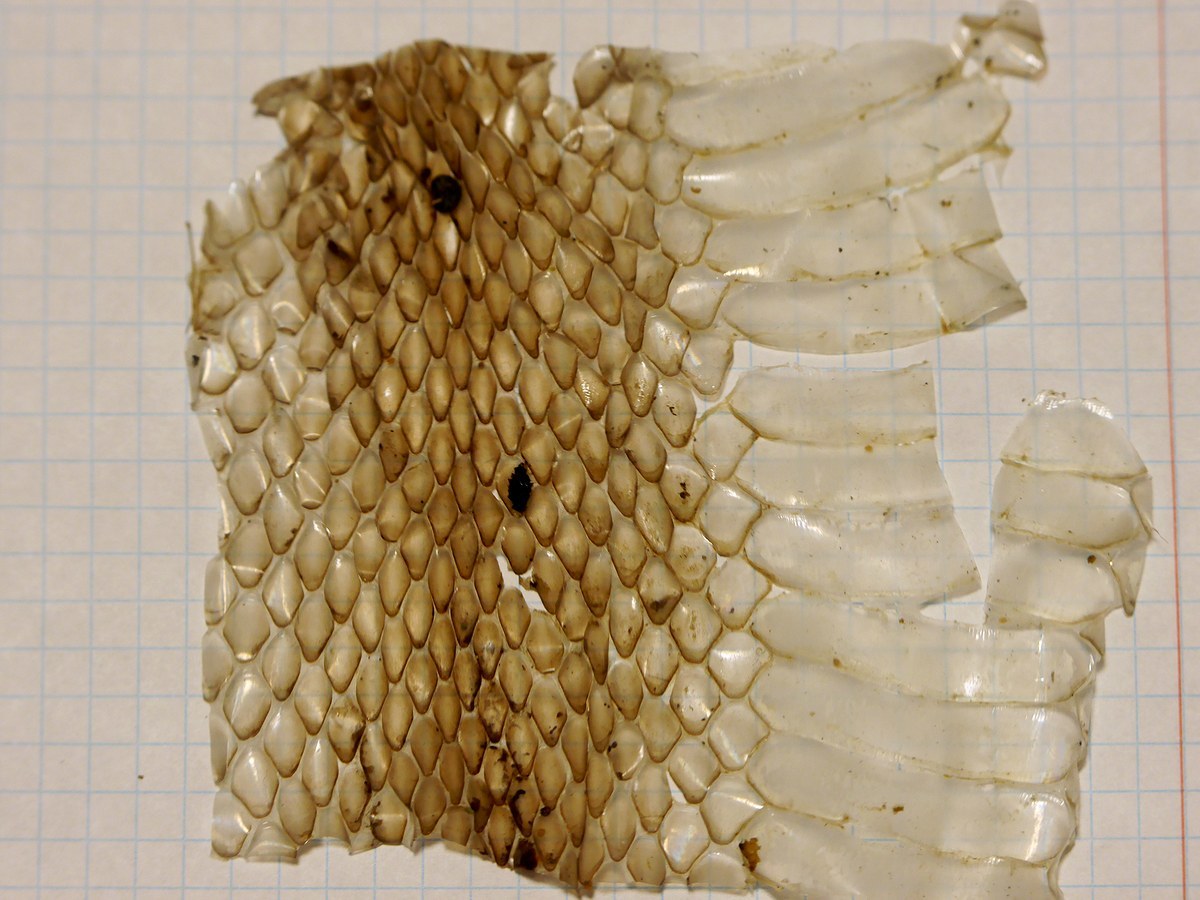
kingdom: Animalia
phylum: Chordata
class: Squamata
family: Colubridae
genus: Dolichophis
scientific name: Dolichophis caspius
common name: Large whip snake
